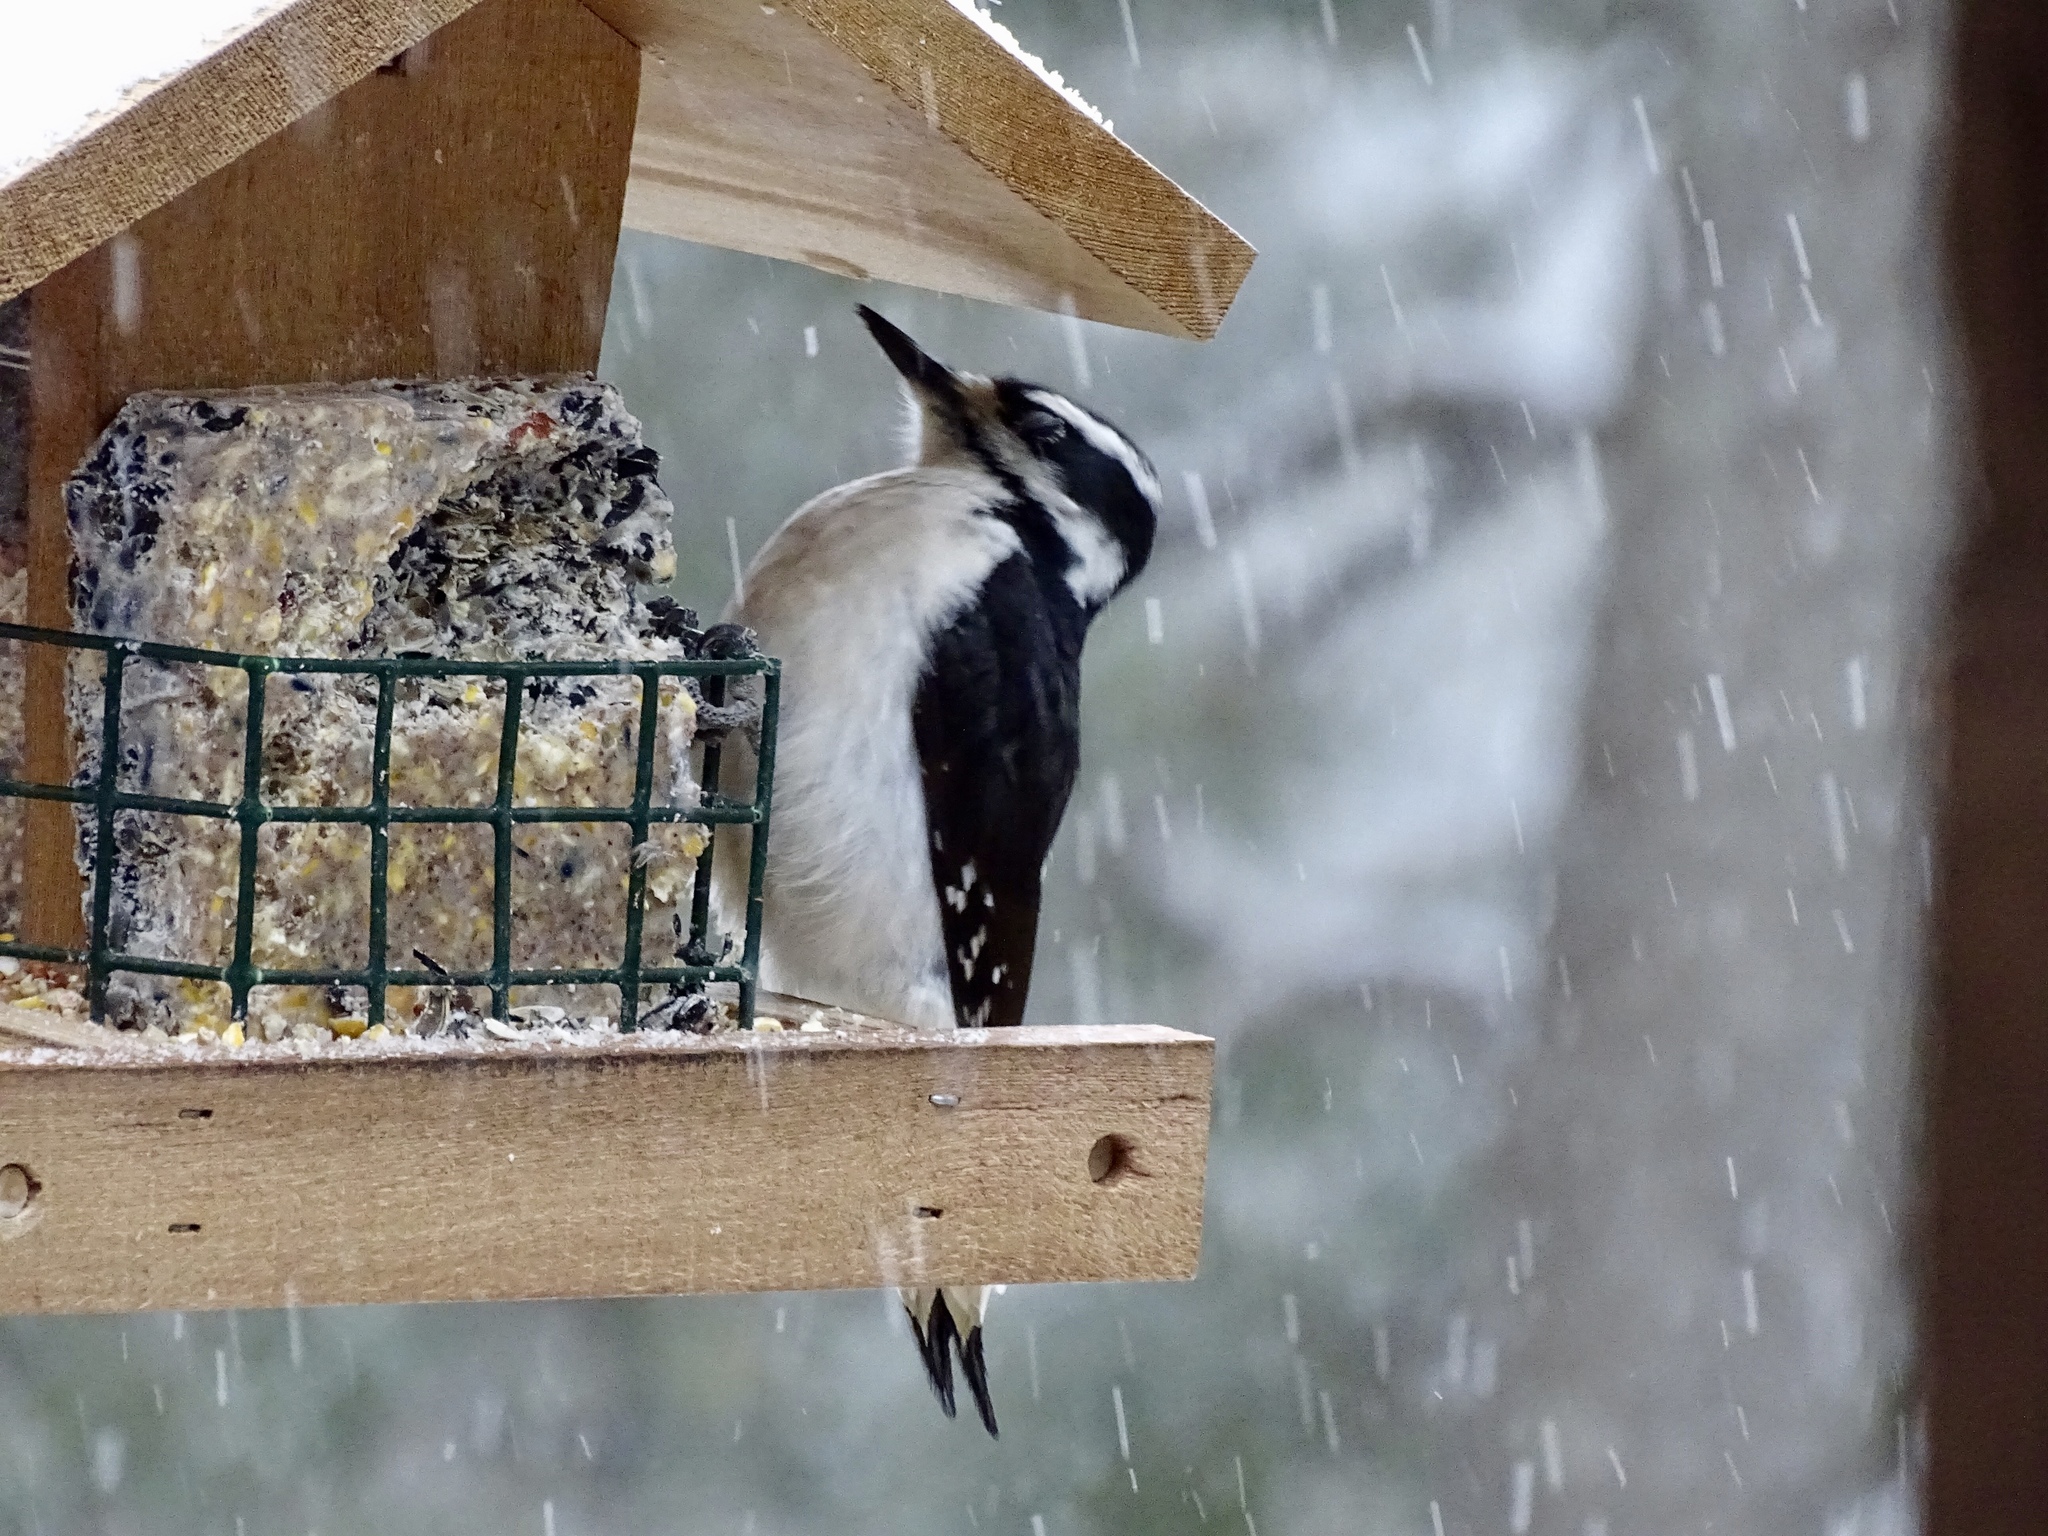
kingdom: Animalia
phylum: Chordata
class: Aves
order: Piciformes
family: Picidae
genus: Leuconotopicus
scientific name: Leuconotopicus villosus
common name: Hairy woodpecker
